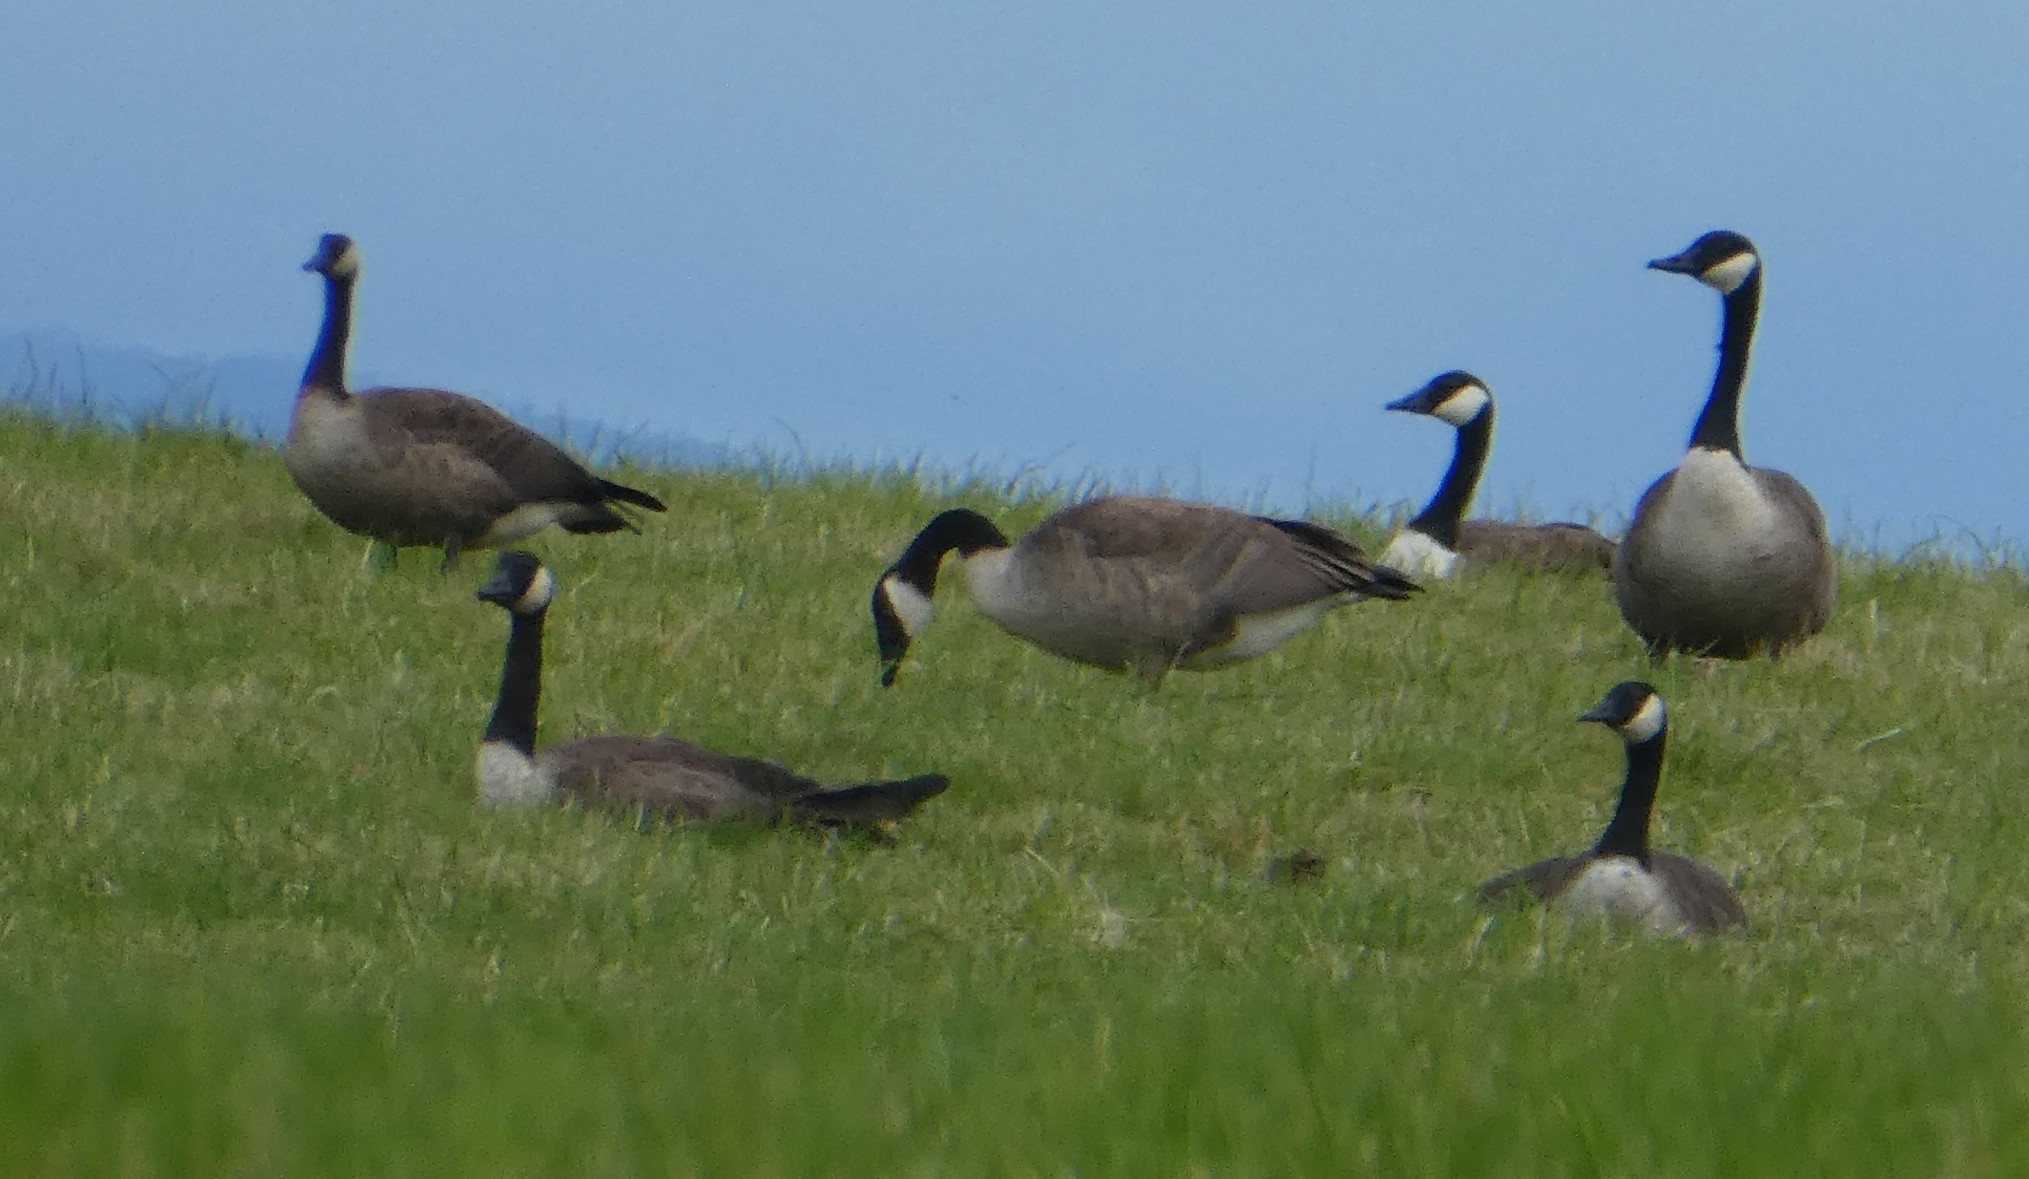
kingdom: Animalia
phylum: Chordata
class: Aves
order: Anseriformes
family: Anatidae
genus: Branta
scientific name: Branta canadensis
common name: Canada goose
